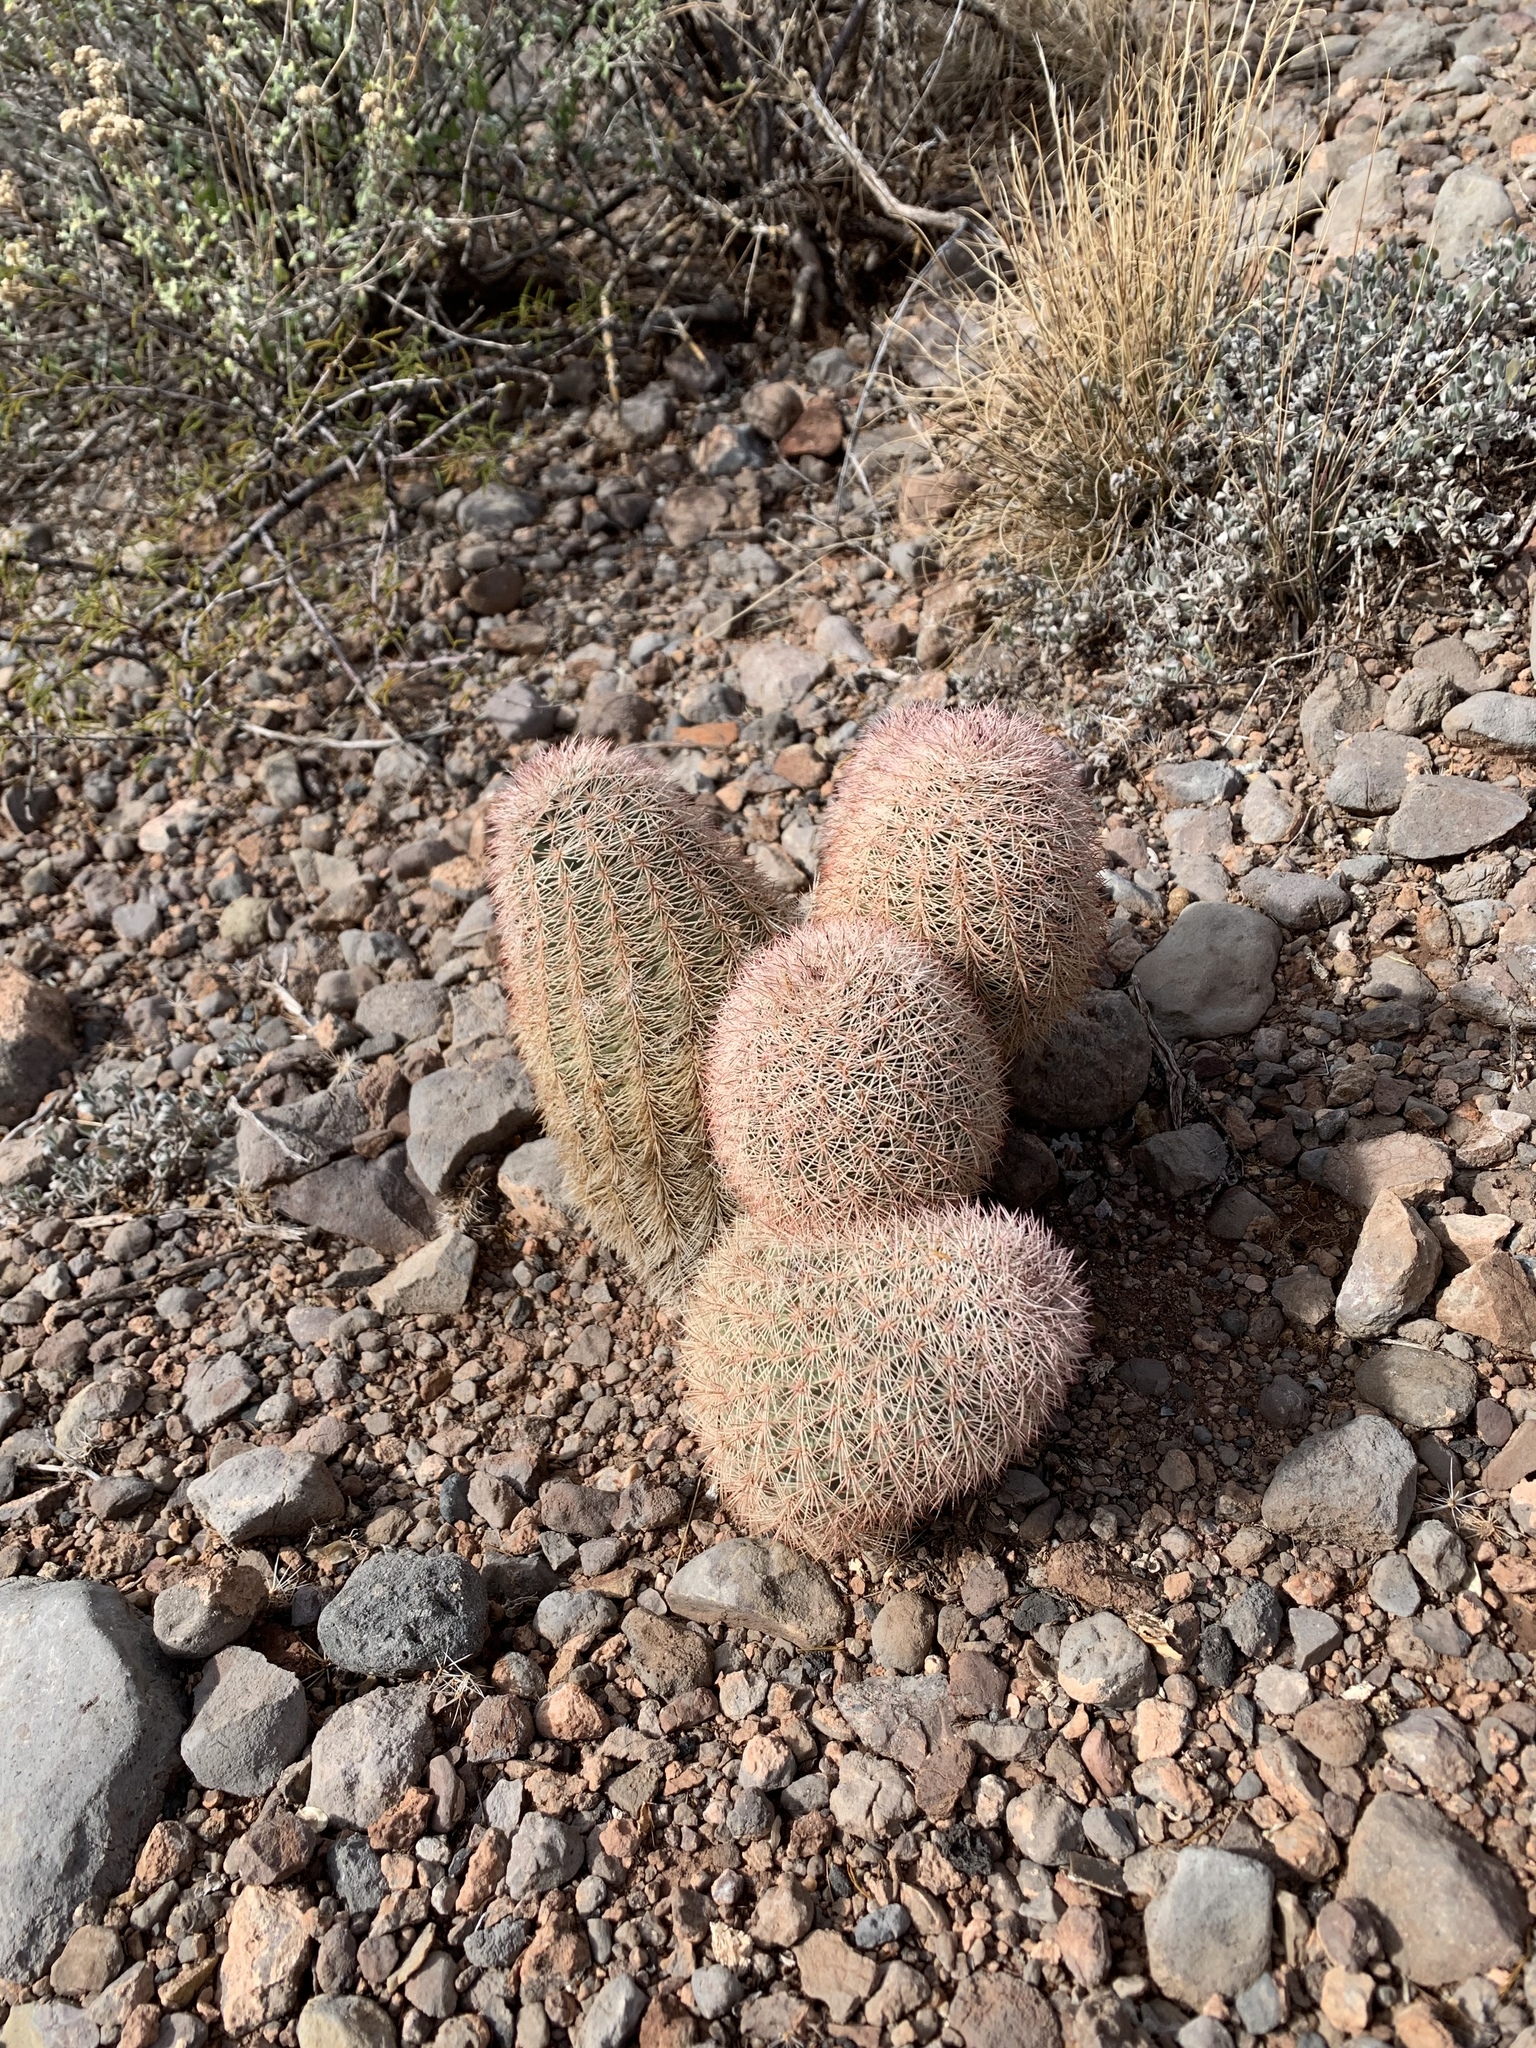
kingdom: Plantae
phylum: Tracheophyta
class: Magnoliopsida
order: Caryophyllales
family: Cactaceae
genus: Echinocereus
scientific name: Echinocereus dasyacanthus
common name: Spiny hedgehog cactus
